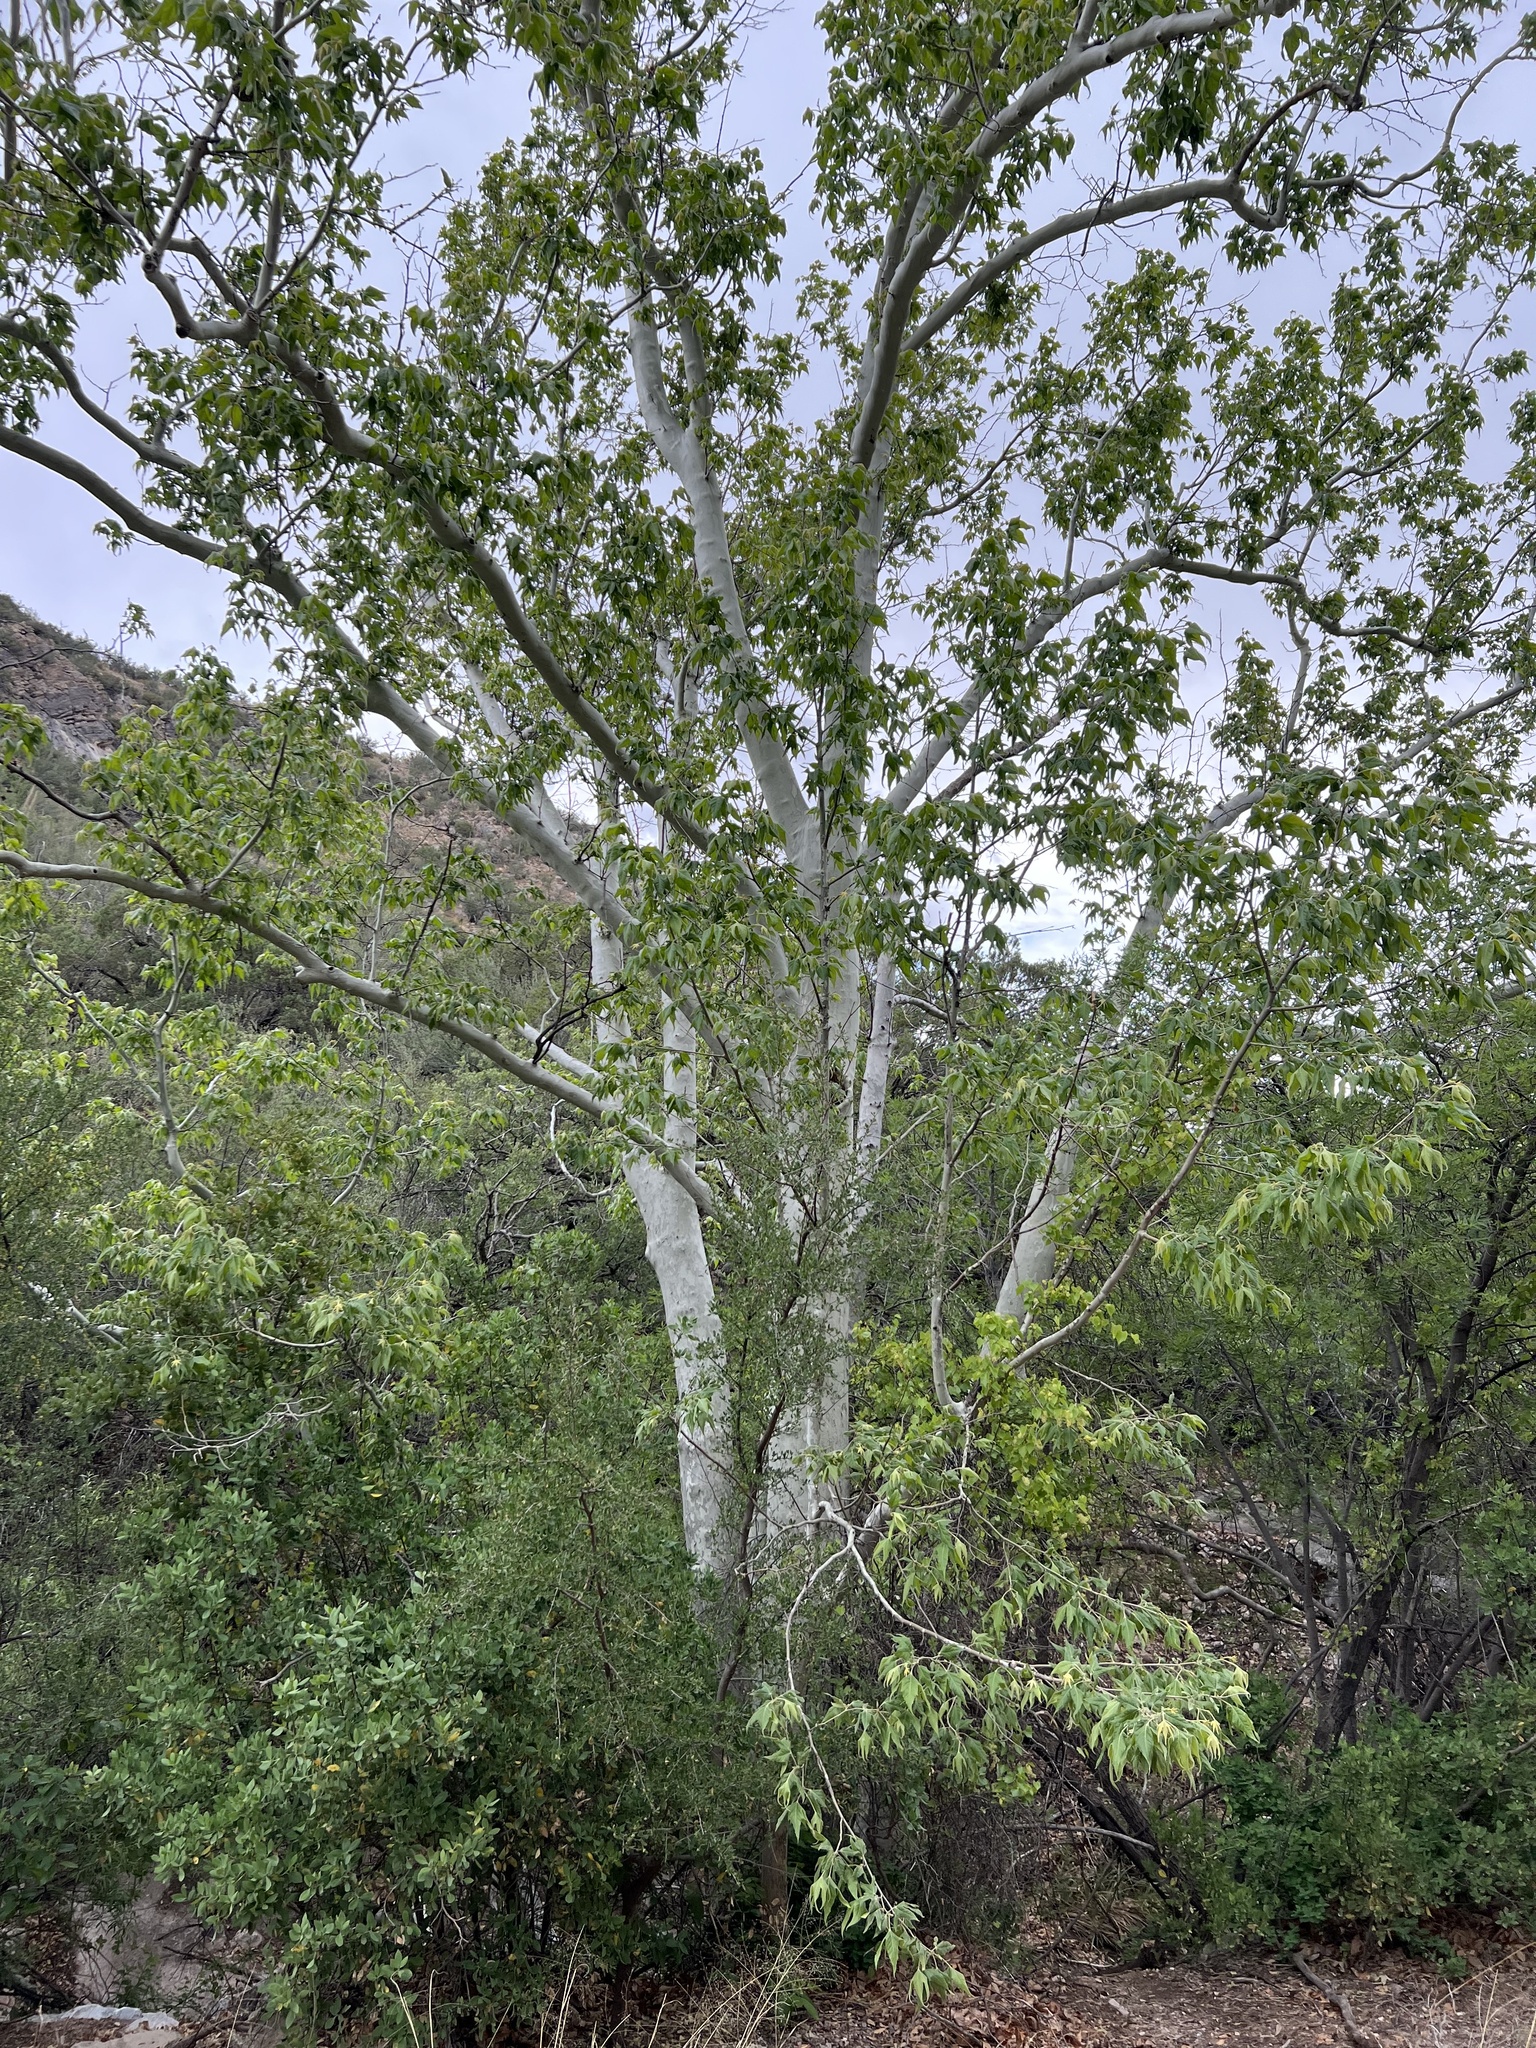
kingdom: Plantae
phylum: Tracheophyta
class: Magnoliopsida
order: Proteales
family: Platanaceae
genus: Platanus
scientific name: Platanus wrightii
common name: Arizona sycamore
